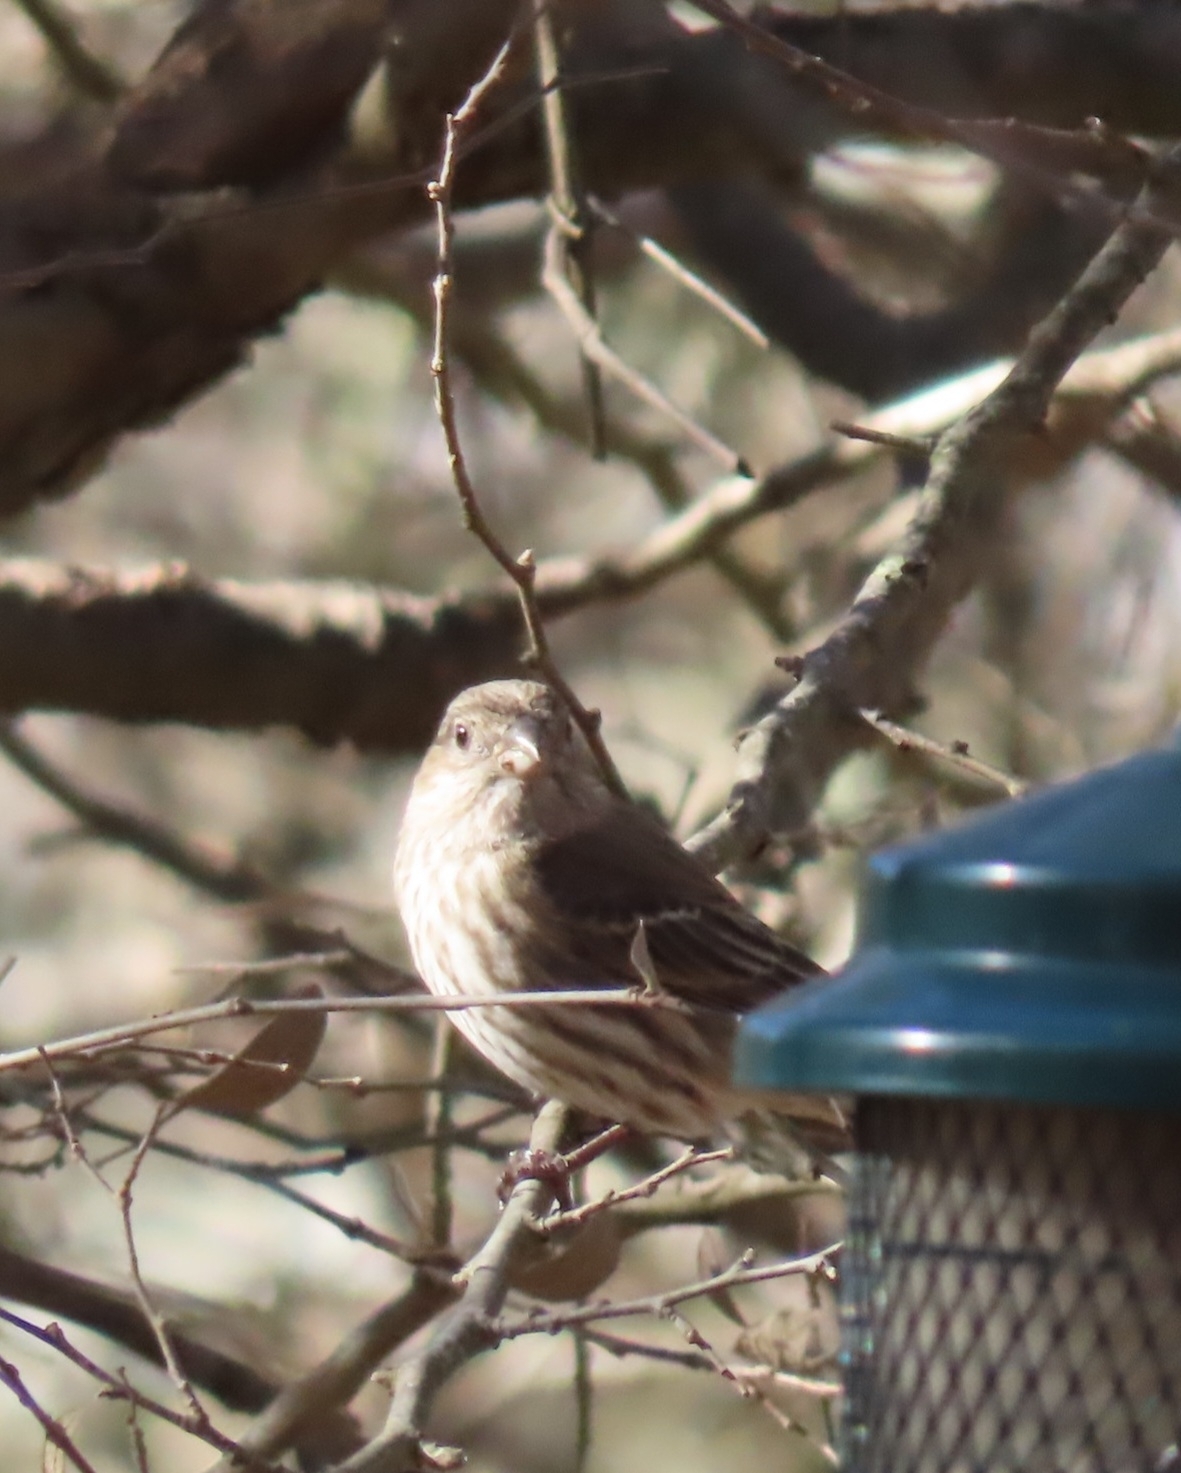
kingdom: Animalia
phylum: Chordata
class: Aves
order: Passeriformes
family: Fringillidae
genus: Haemorhous
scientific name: Haemorhous mexicanus
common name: House finch
